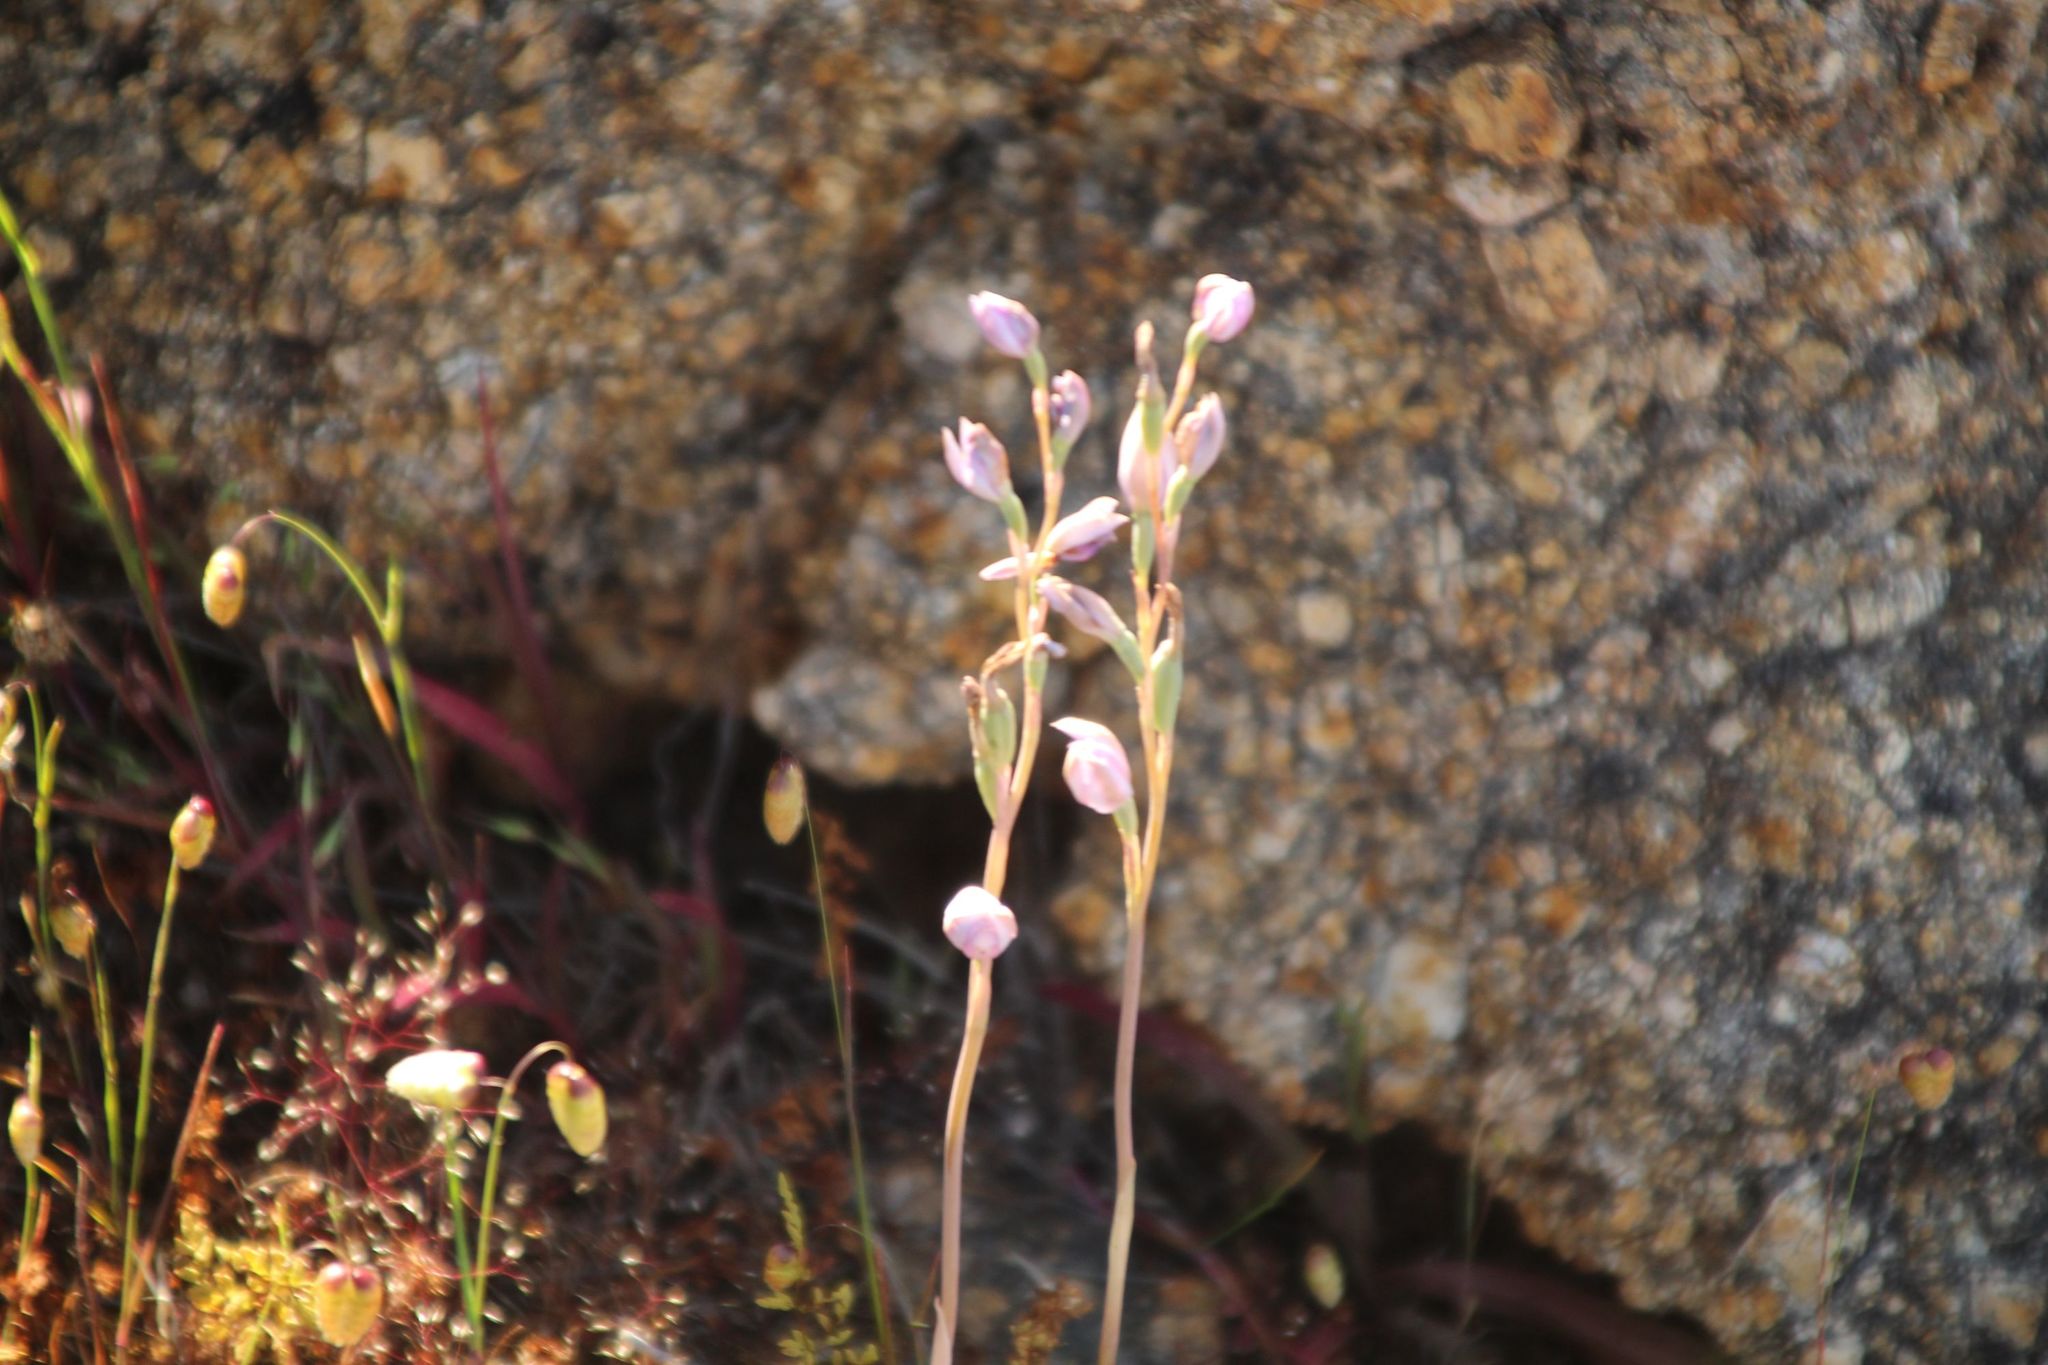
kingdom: Plantae
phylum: Tracheophyta
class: Liliopsida
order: Asparagales
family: Orchidaceae
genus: Thelymitra
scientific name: Thelymitra petrophila
